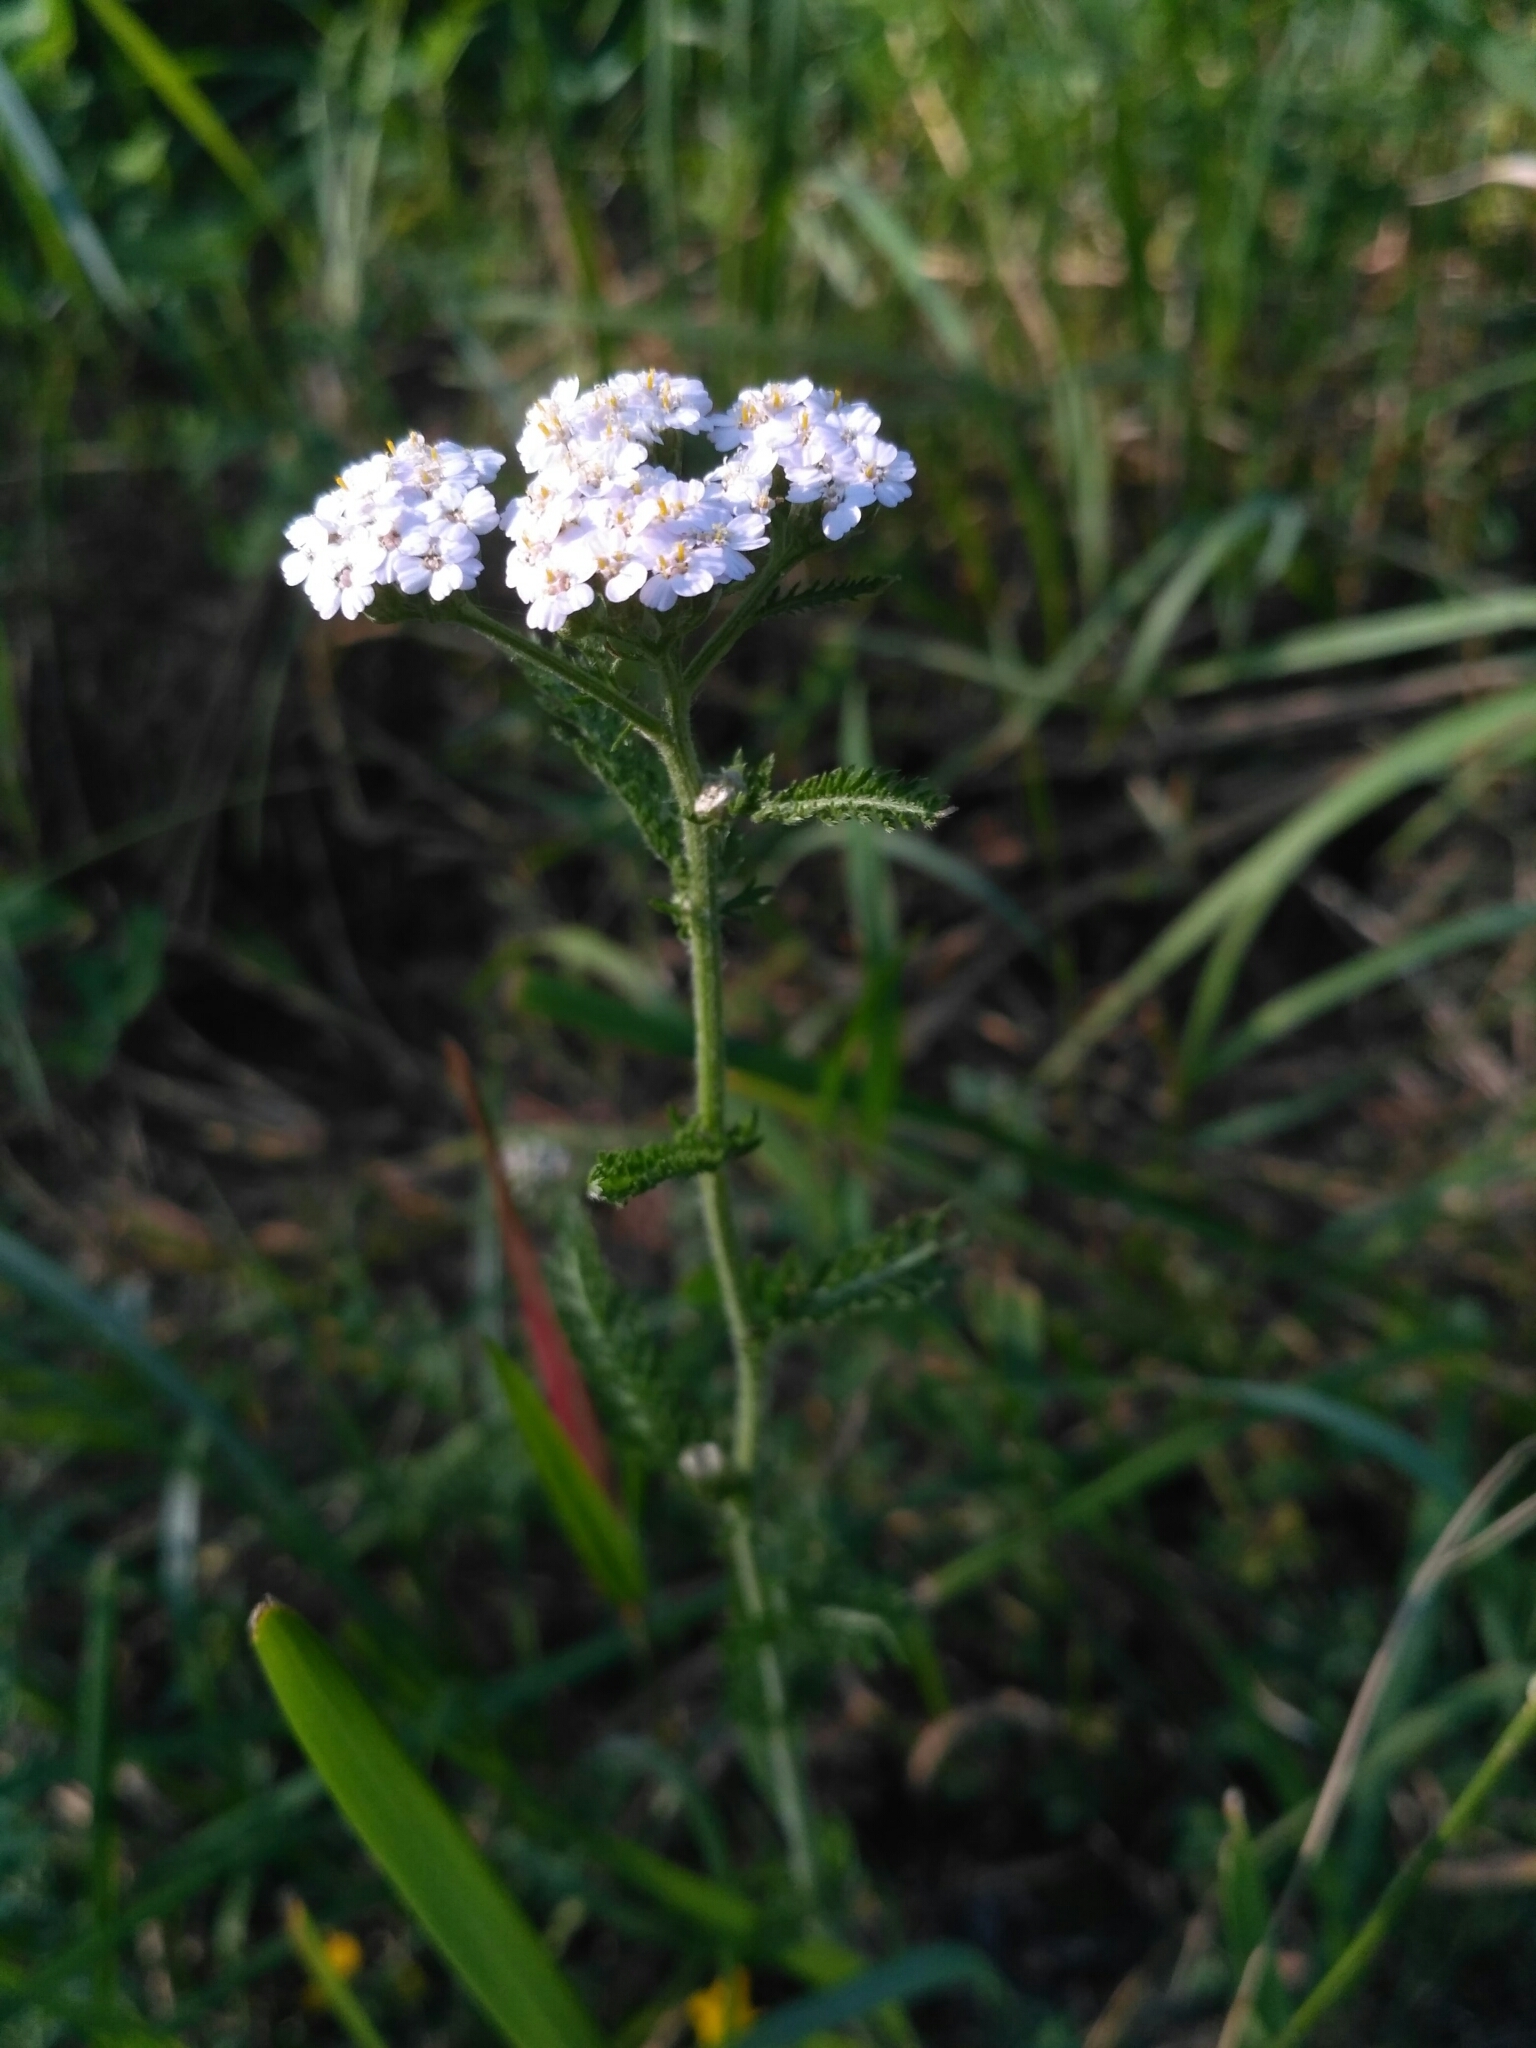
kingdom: Plantae
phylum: Tracheophyta
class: Magnoliopsida
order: Asterales
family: Asteraceae
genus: Achillea
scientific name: Achillea millefolium
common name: Yarrow
